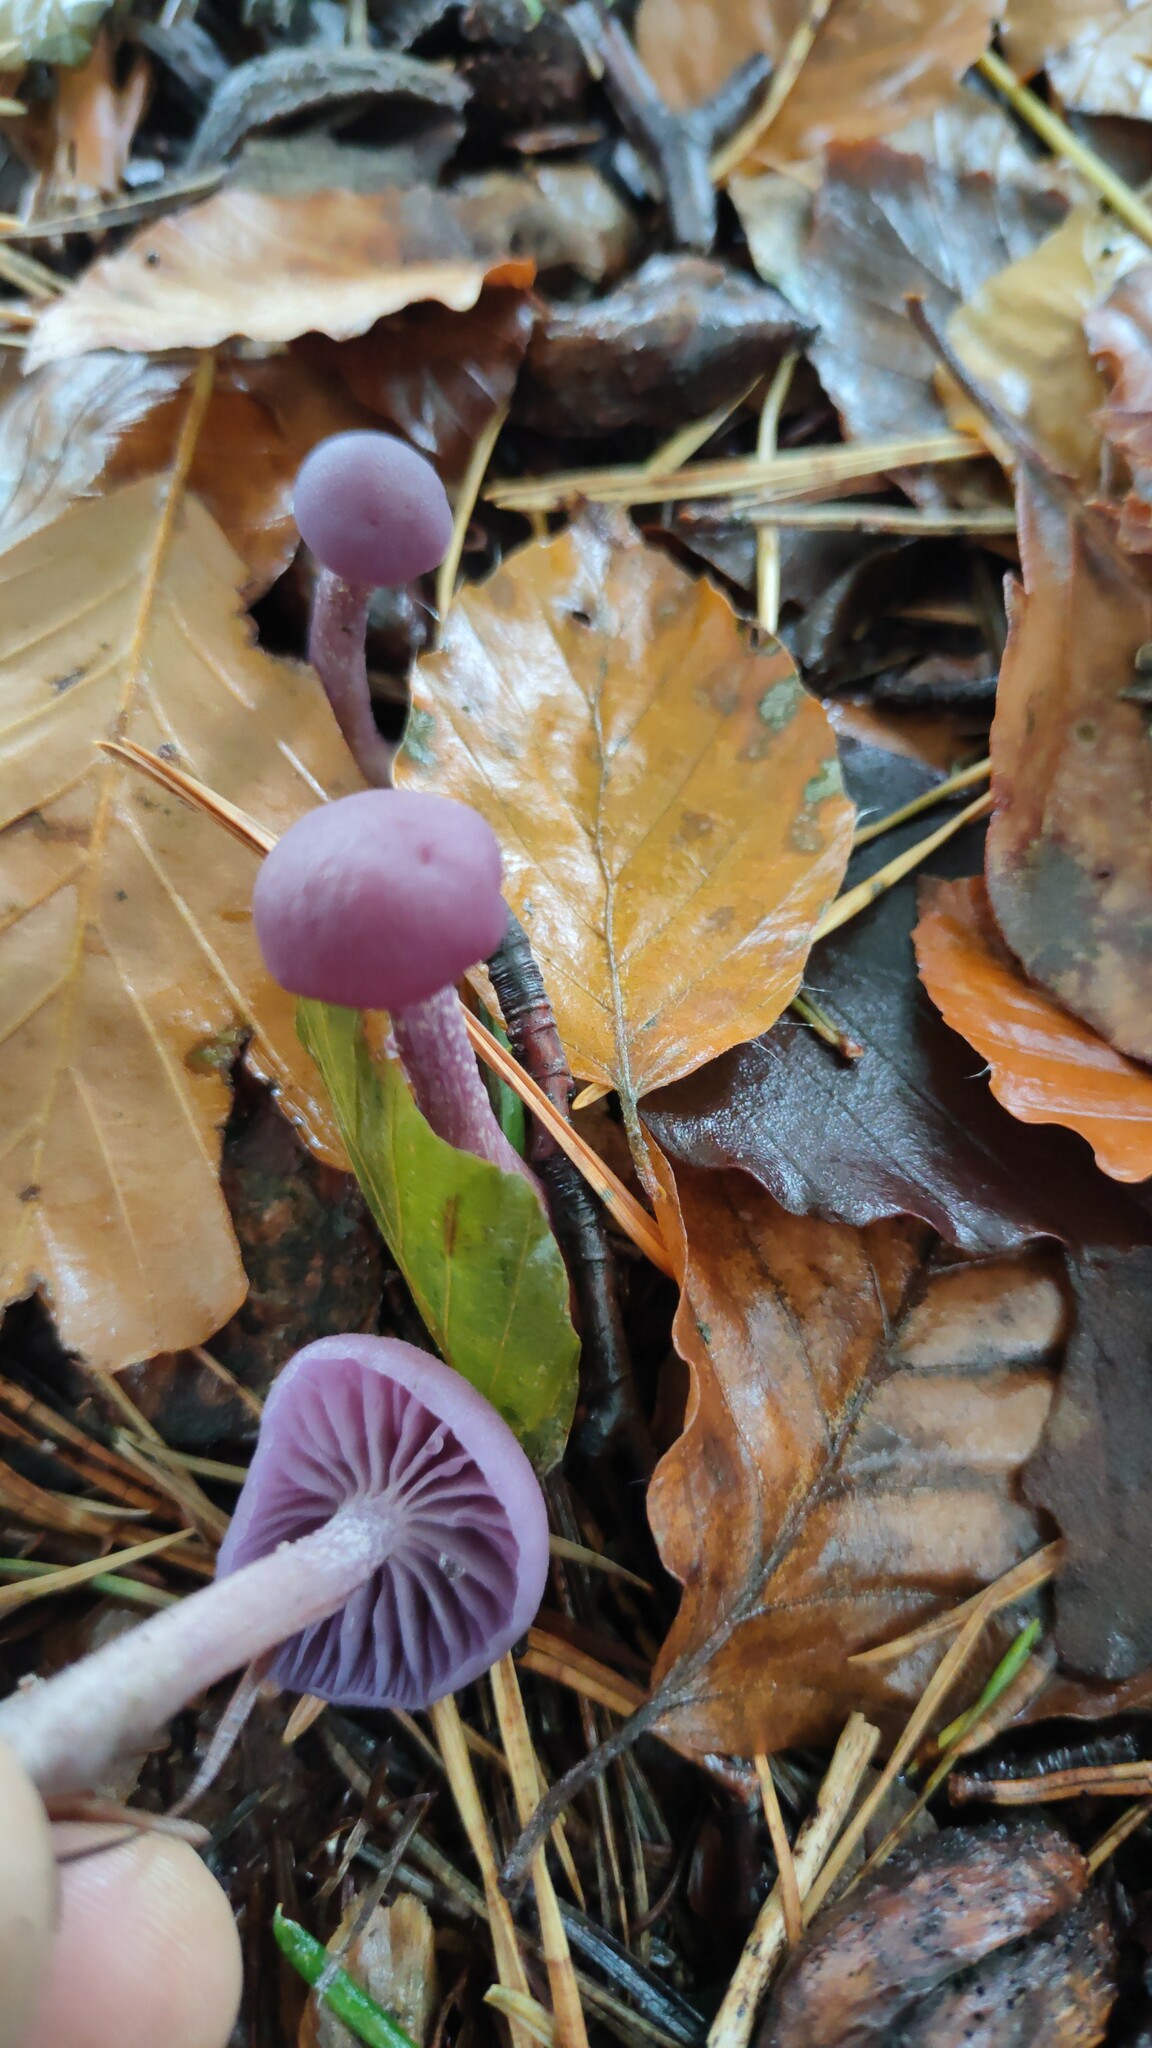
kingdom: Fungi
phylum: Basidiomycota
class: Agaricomycetes
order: Agaricales
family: Hydnangiaceae
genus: Laccaria
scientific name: Laccaria amethystina
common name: Amethyst deceiver
